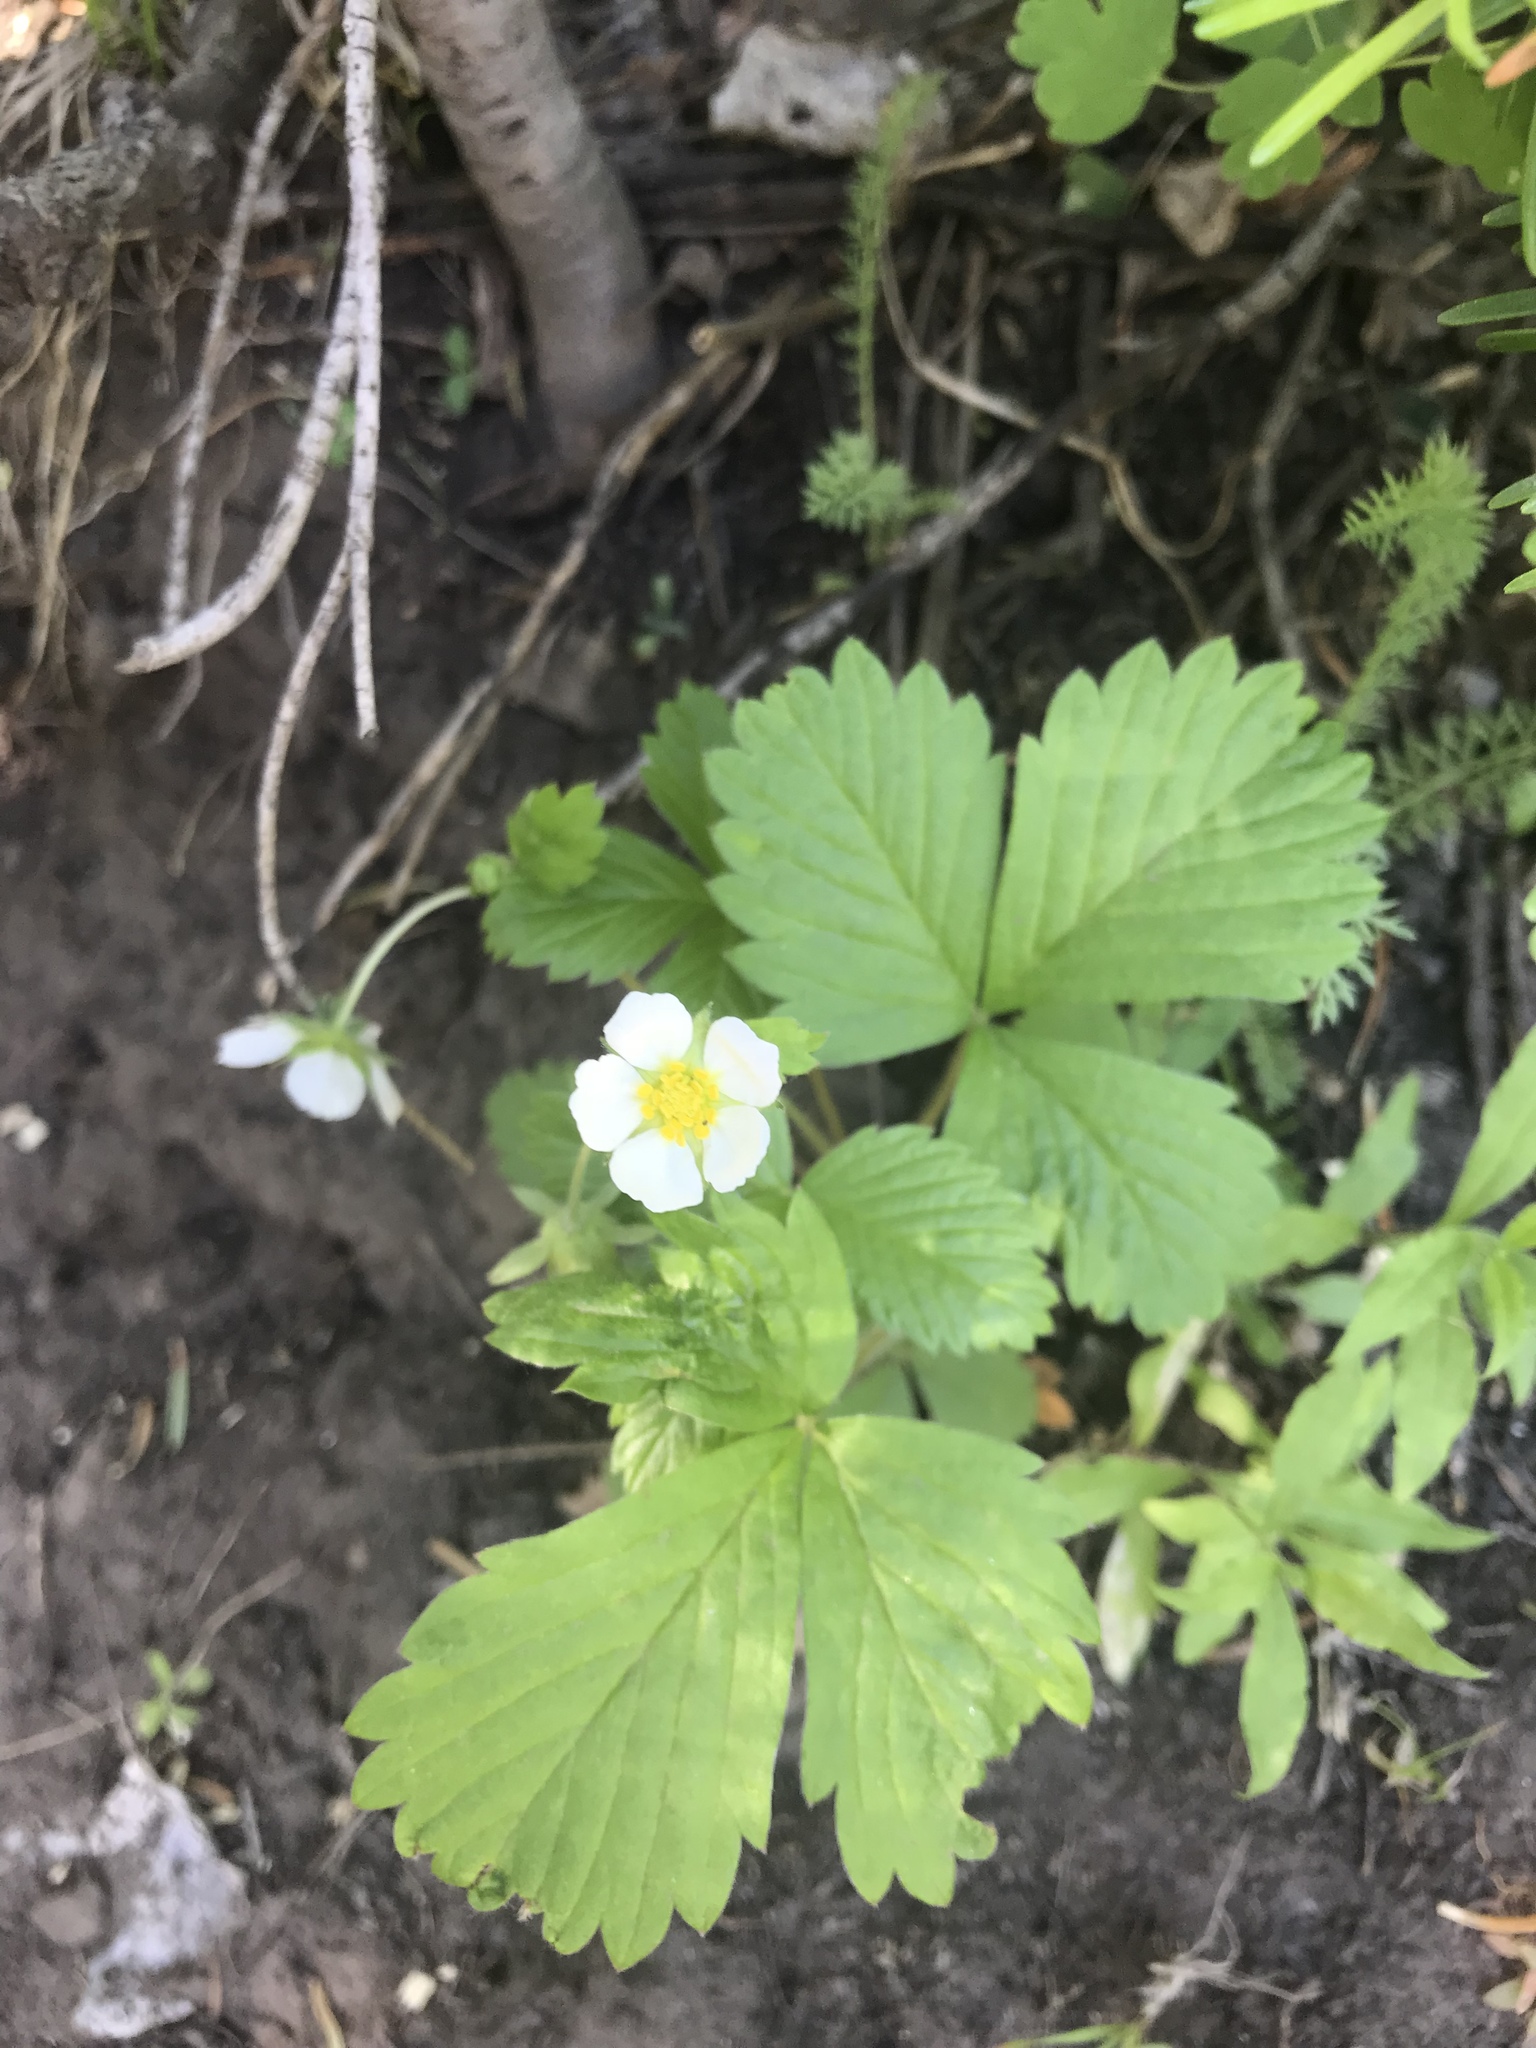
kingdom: Plantae
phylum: Tracheophyta
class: Magnoliopsida
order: Rosales
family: Rosaceae
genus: Fragaria
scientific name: Fragaria vesca
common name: Wild strawberry
